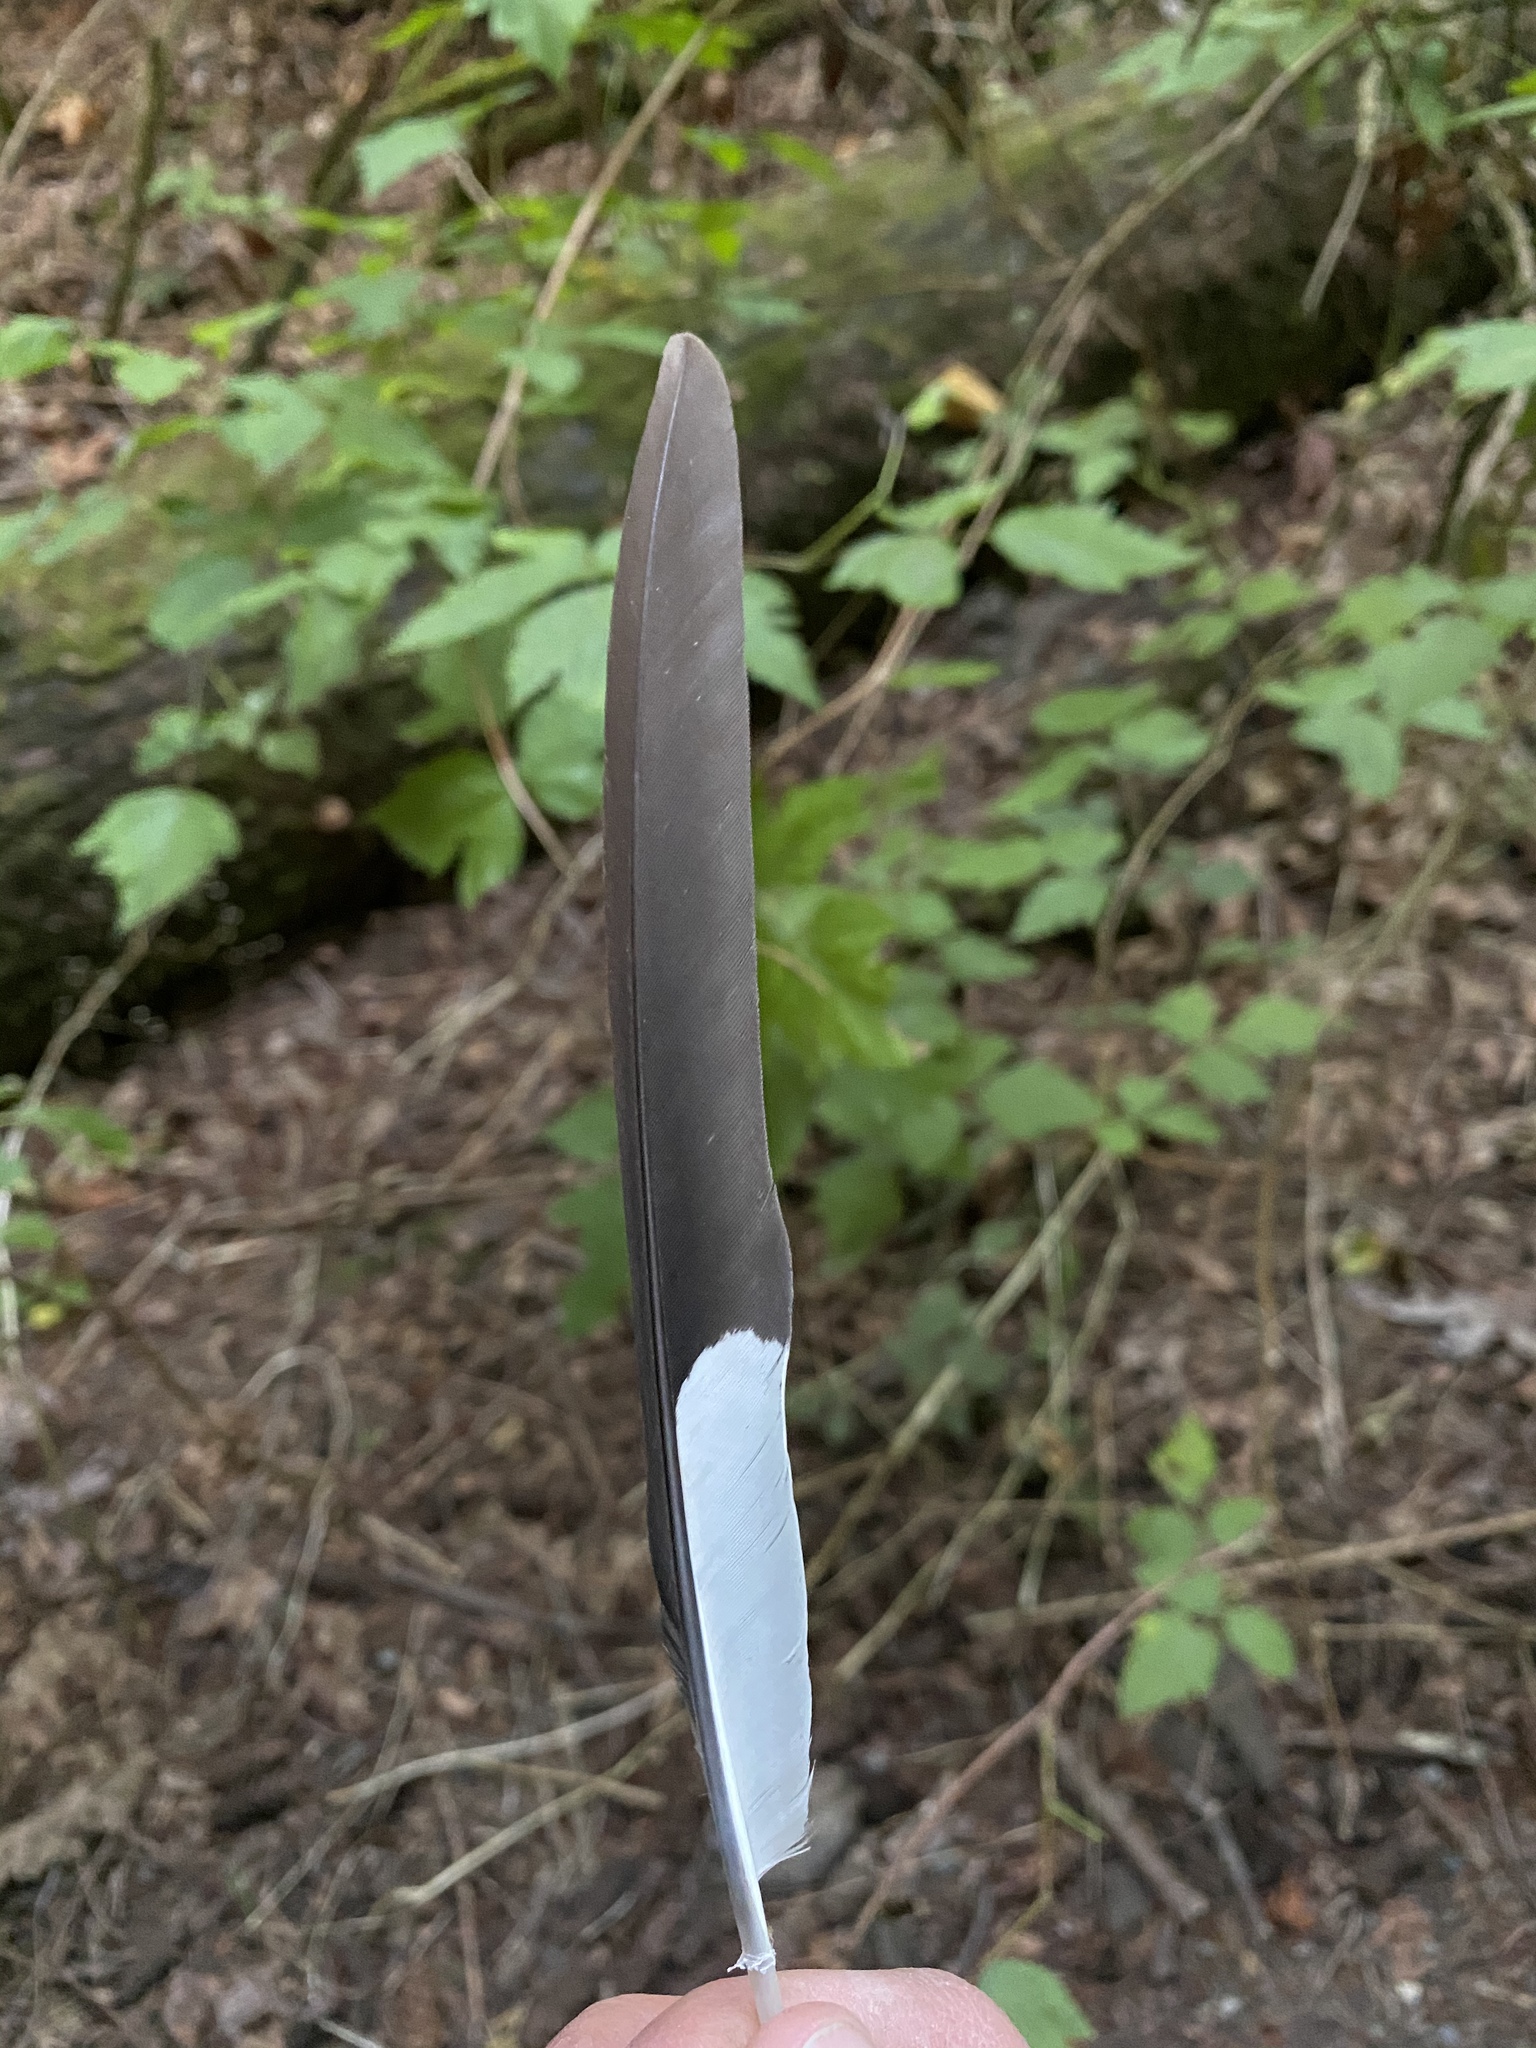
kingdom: Animalia
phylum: Chordata
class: Aves
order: Piciformes
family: Picidae
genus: Dryocopus
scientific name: Dryocopus pileatus
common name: Pileated woodpecker
